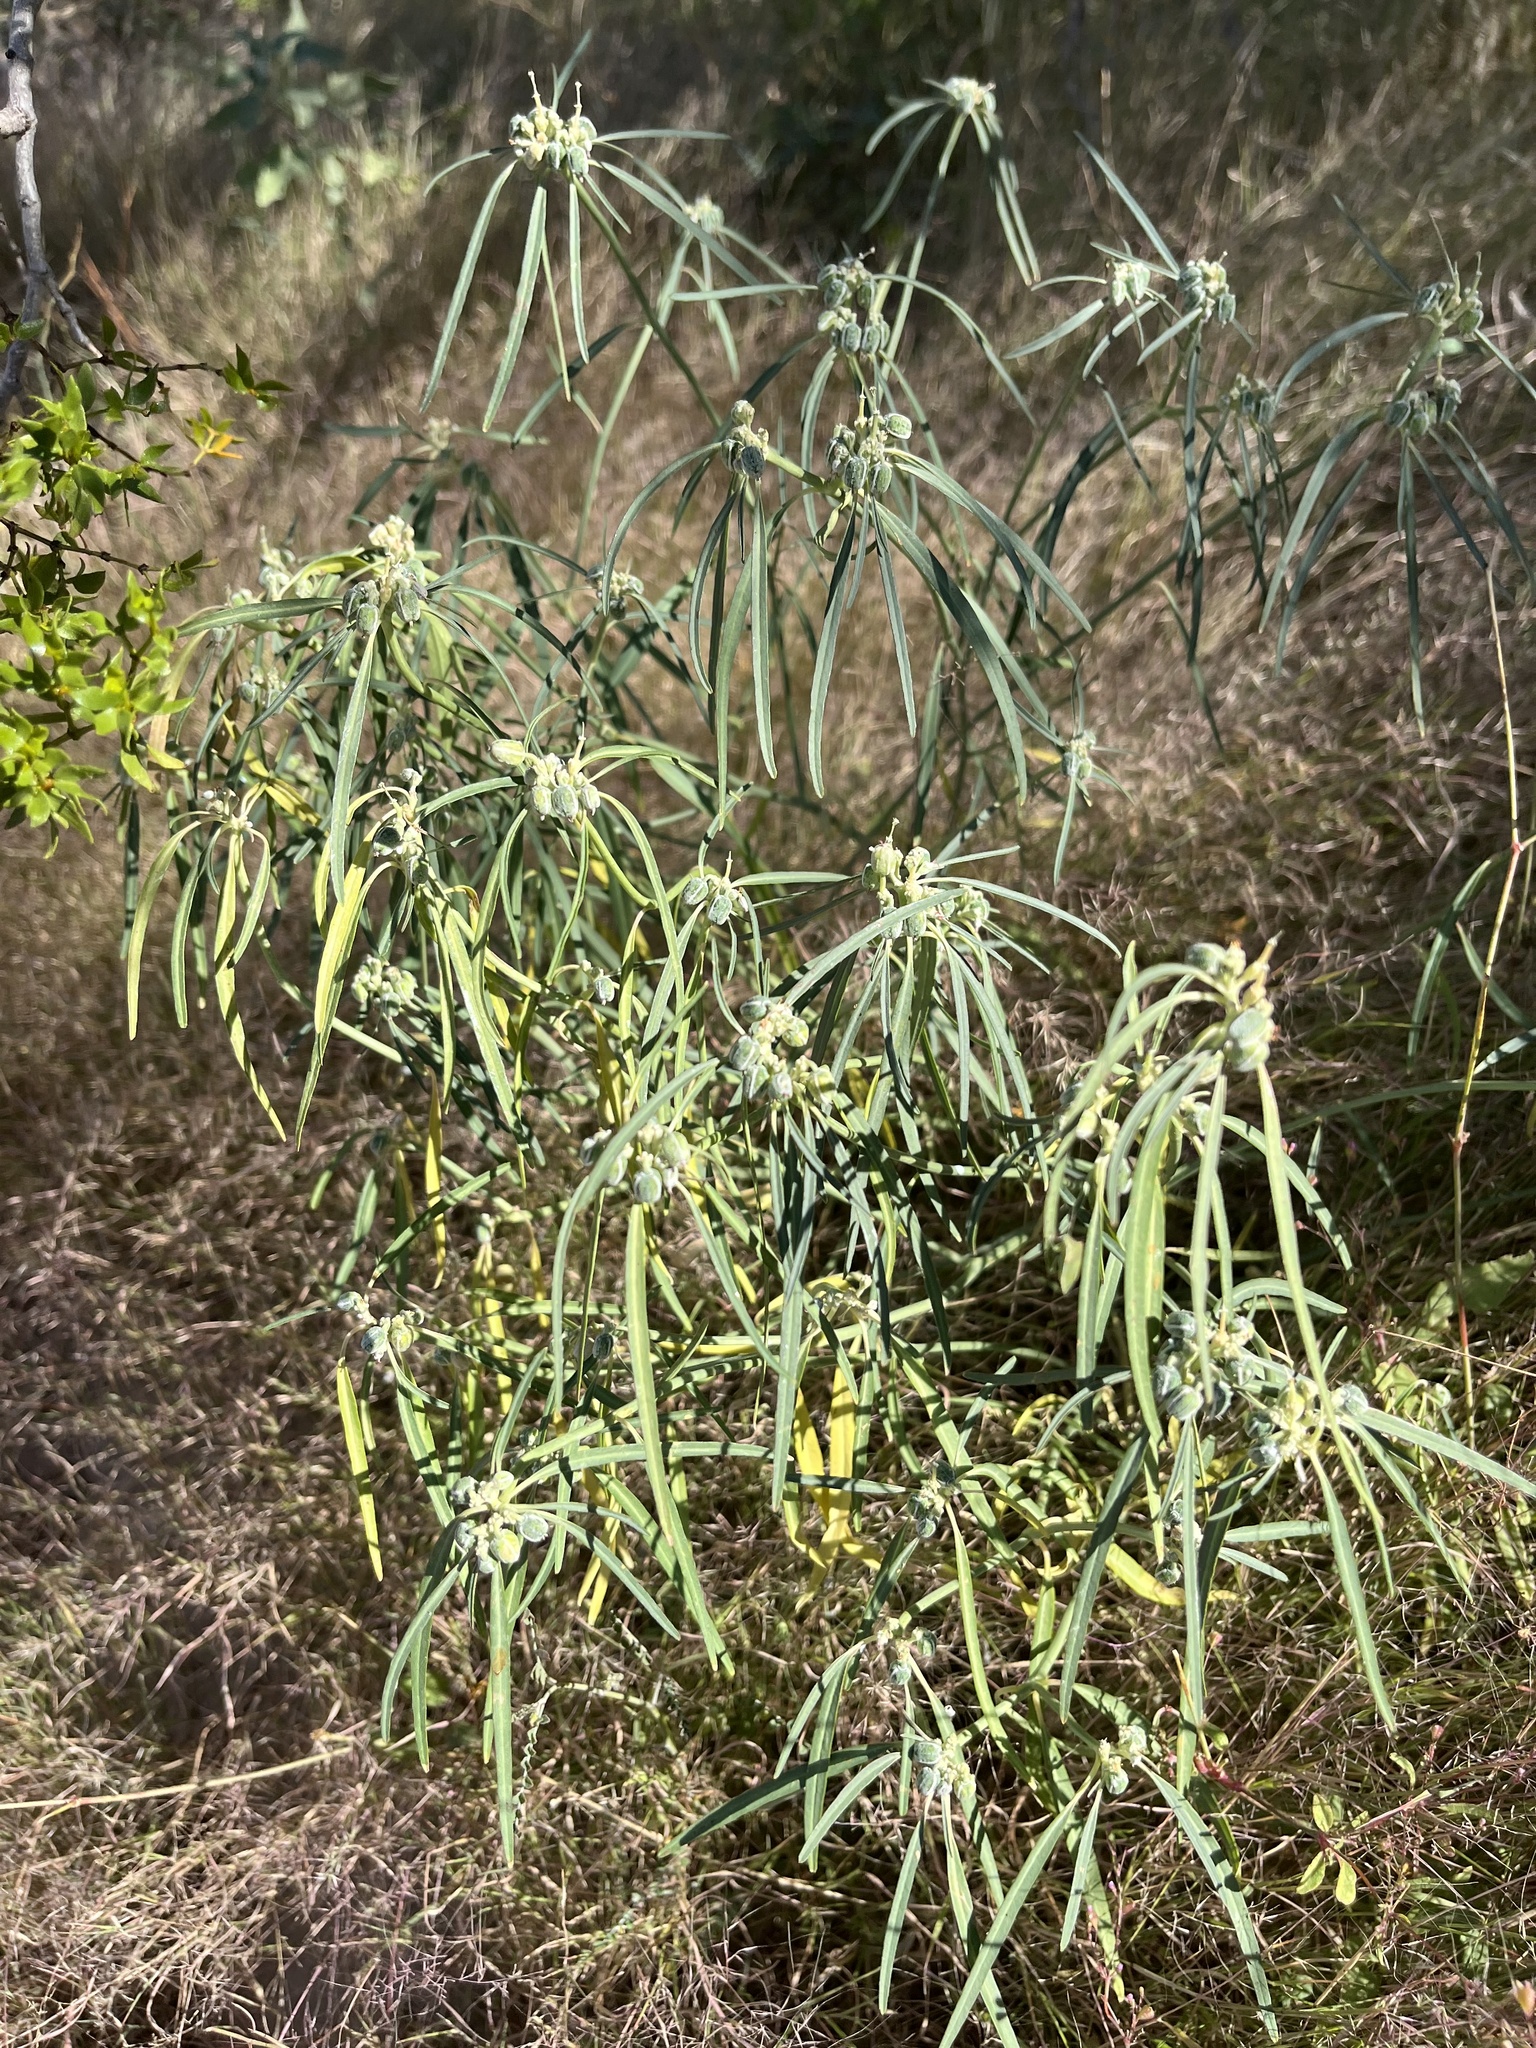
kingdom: Plantae
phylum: Tracheophyta
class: Magnoliopsida
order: Malpighiales
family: Euphorbiaceae
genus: Euphorbia
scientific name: Euphorbia eriantha
